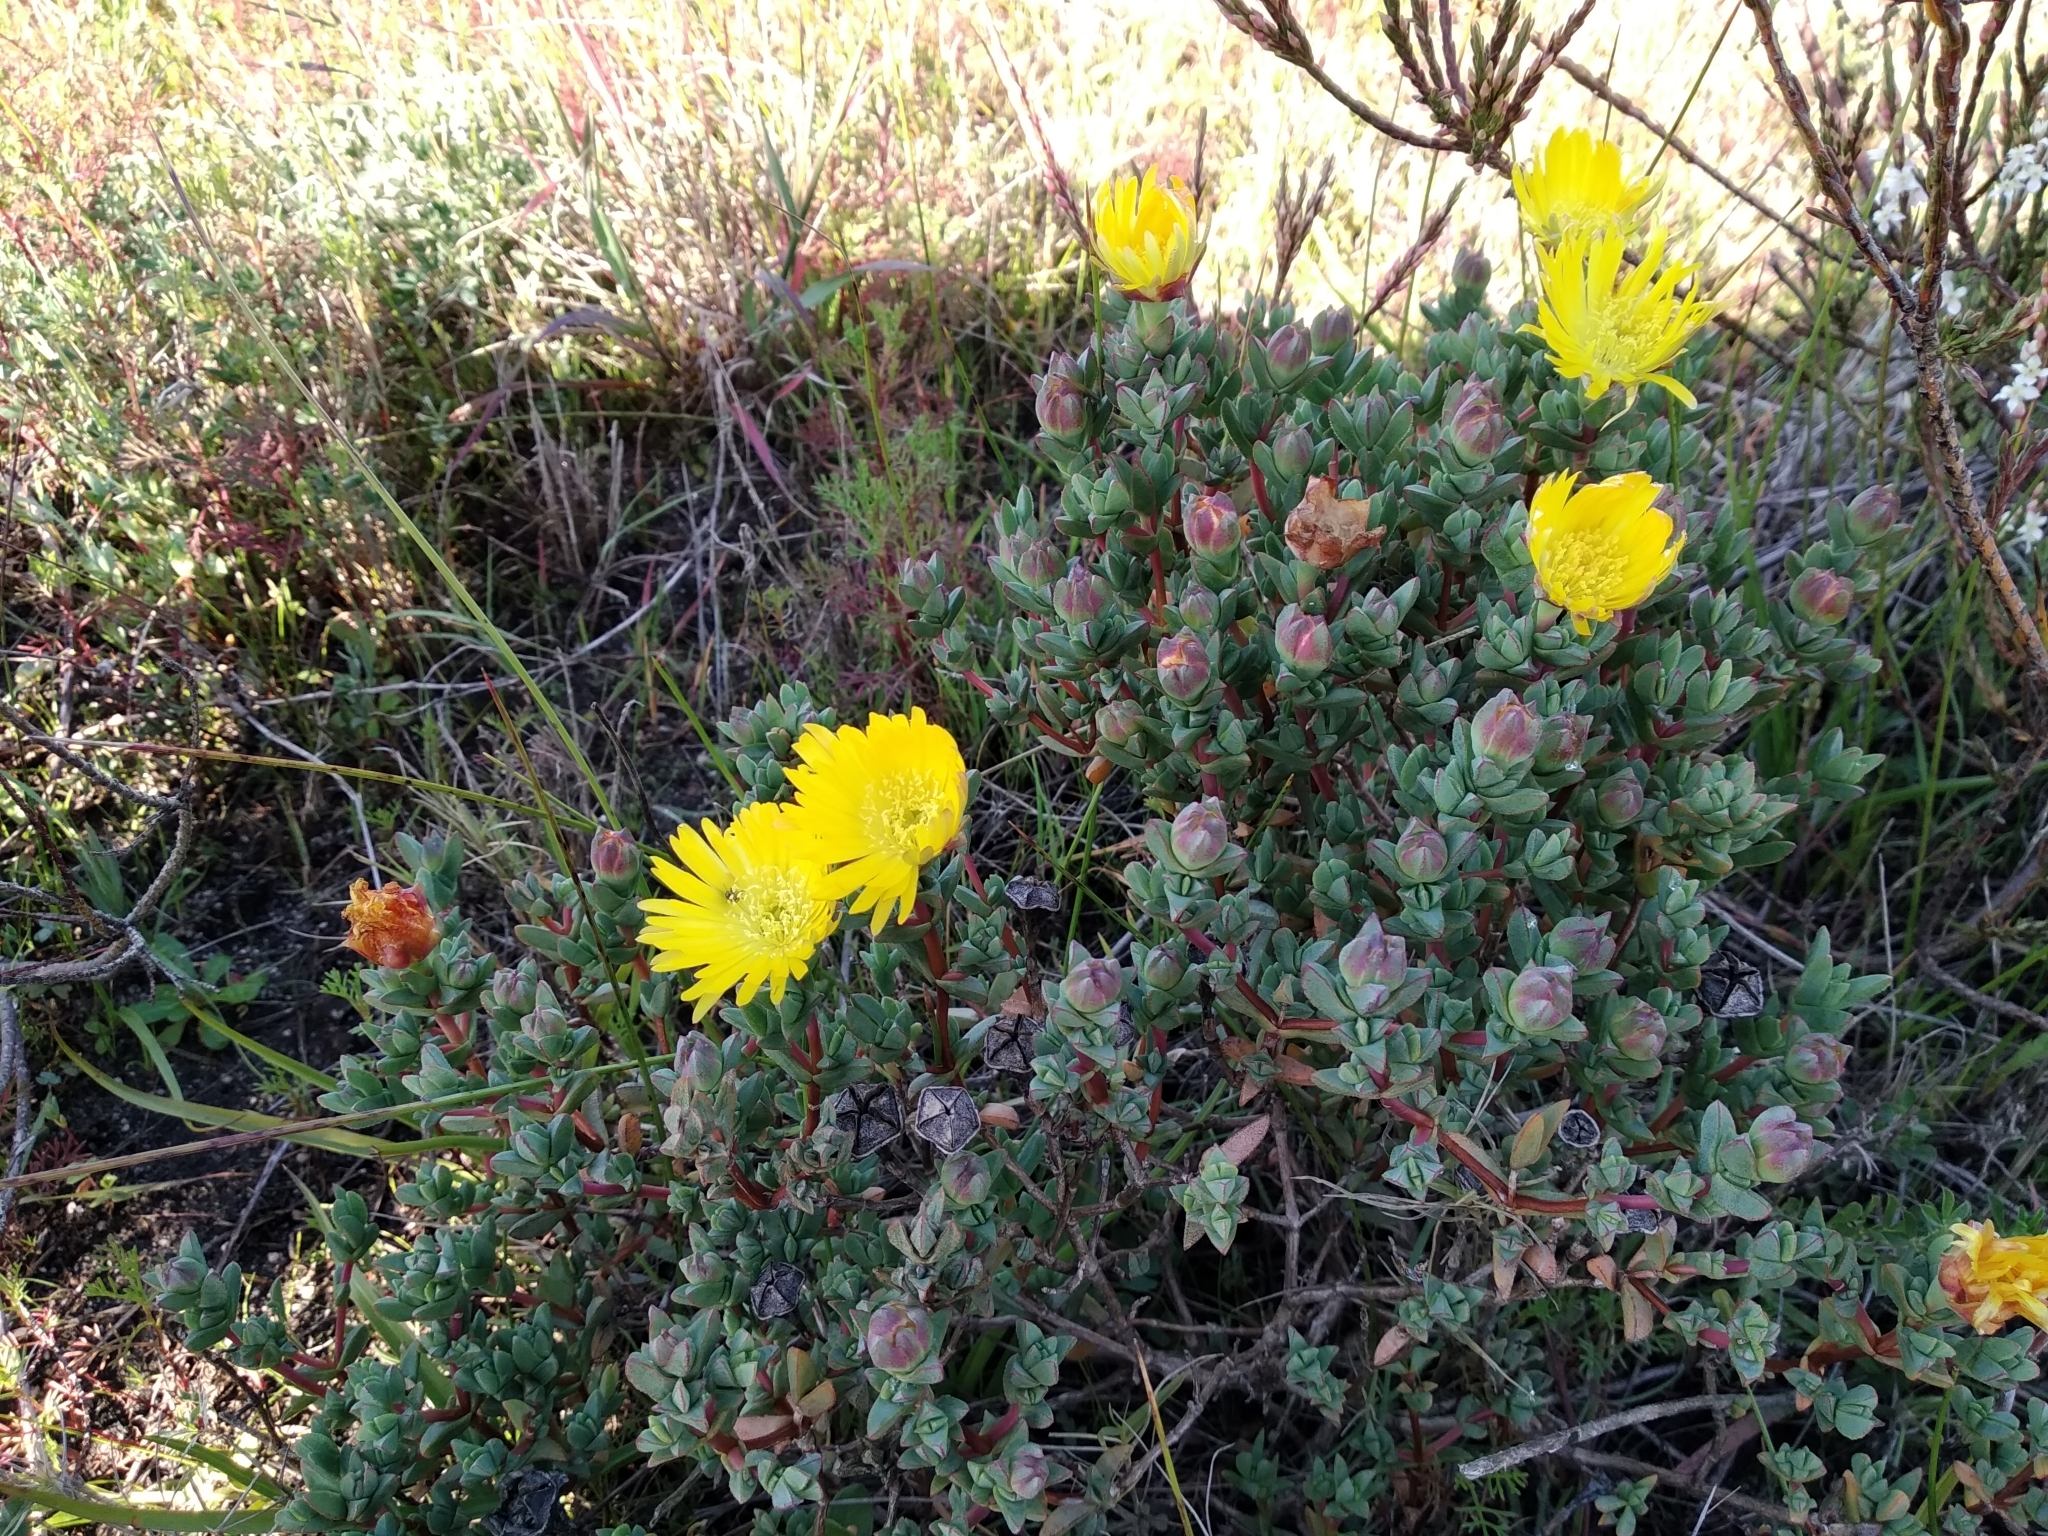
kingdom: Plantae
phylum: Tracheophyta
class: Magnoliopsida
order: Caryophyllales
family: Aizoaceae
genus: Lampranthus
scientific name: Lampranthus glaucus
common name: Noonflower
